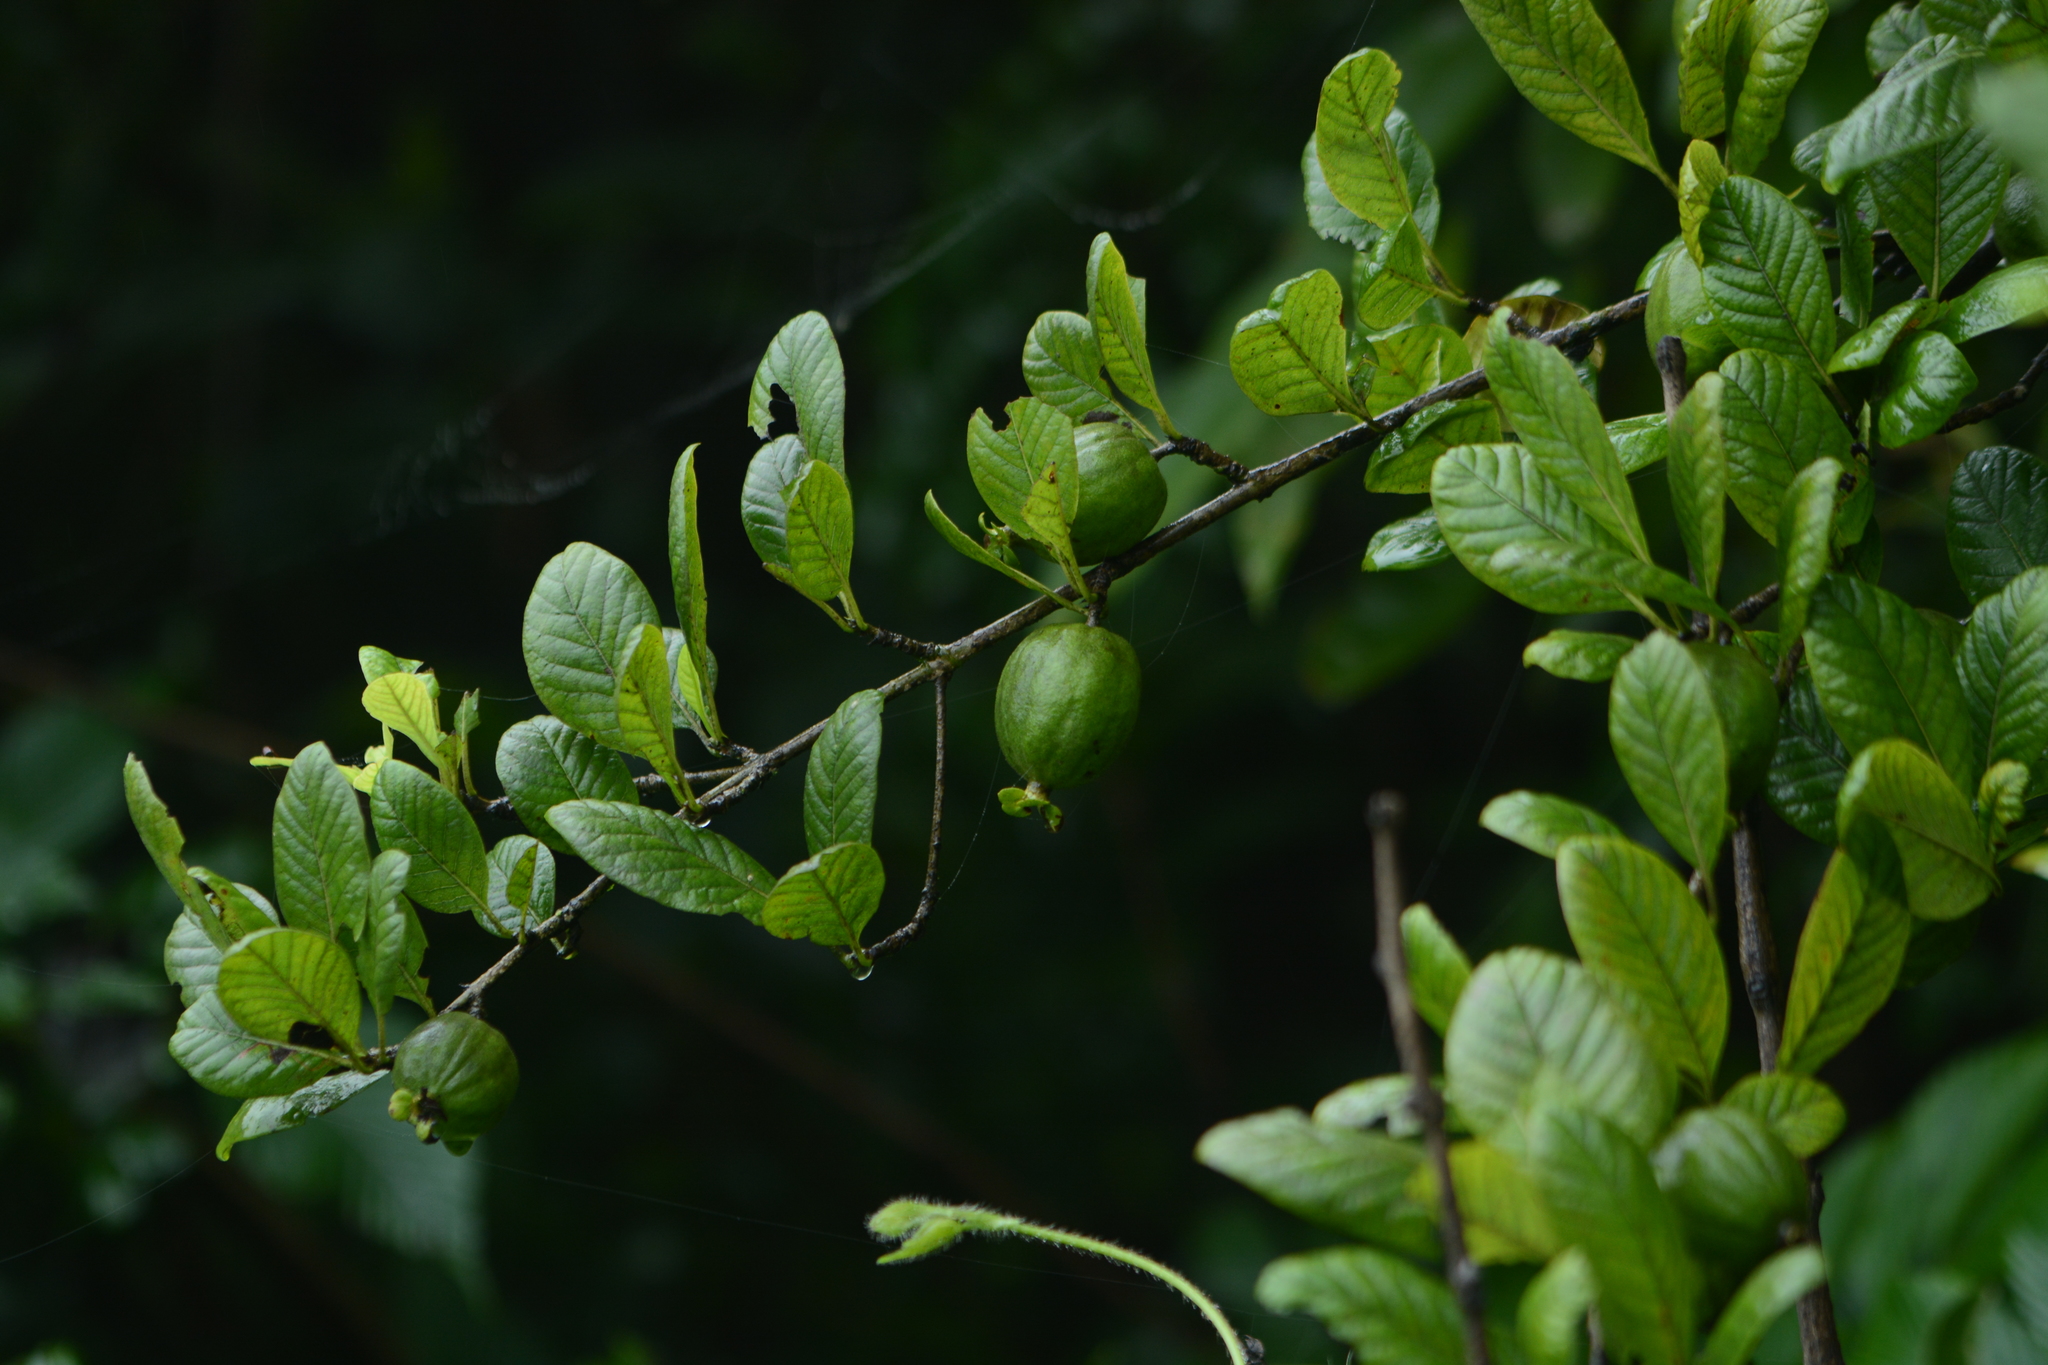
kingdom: Plantae
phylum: Tracheophyta
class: Magnoliopsida
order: Gentianales
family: Rubiaceae
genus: Catunaregam
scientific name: Catunaregam spinosa
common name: Emetic-nut
